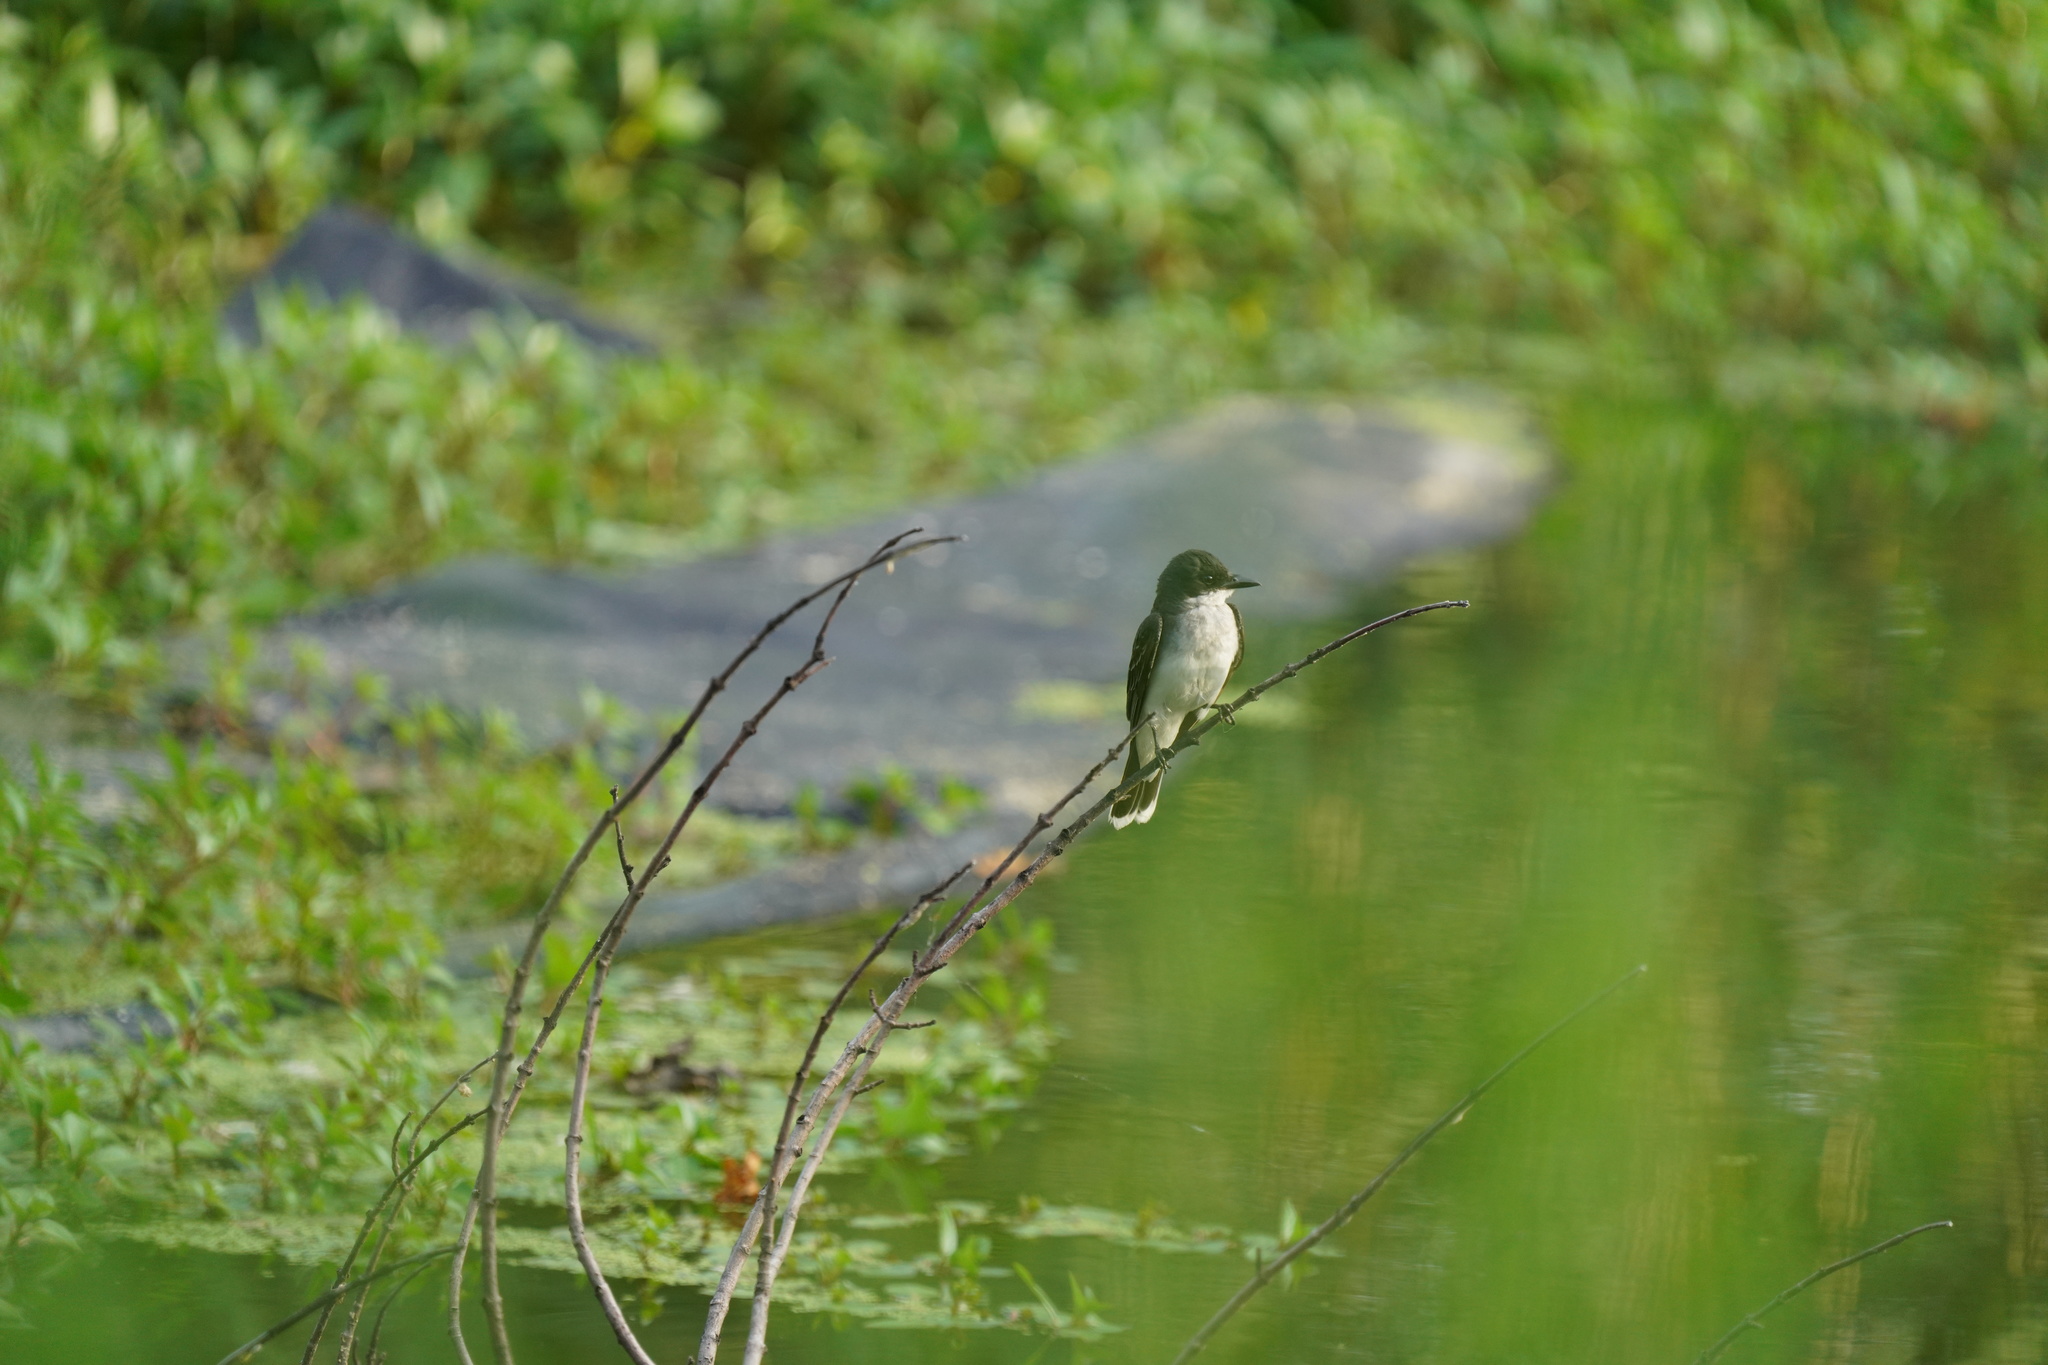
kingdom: Animalia
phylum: Chordata
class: Aves
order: Passeriformes
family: Tyrannidae
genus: Tyrannus
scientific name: Tyrannus tyrannus
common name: Eastern kingbird
